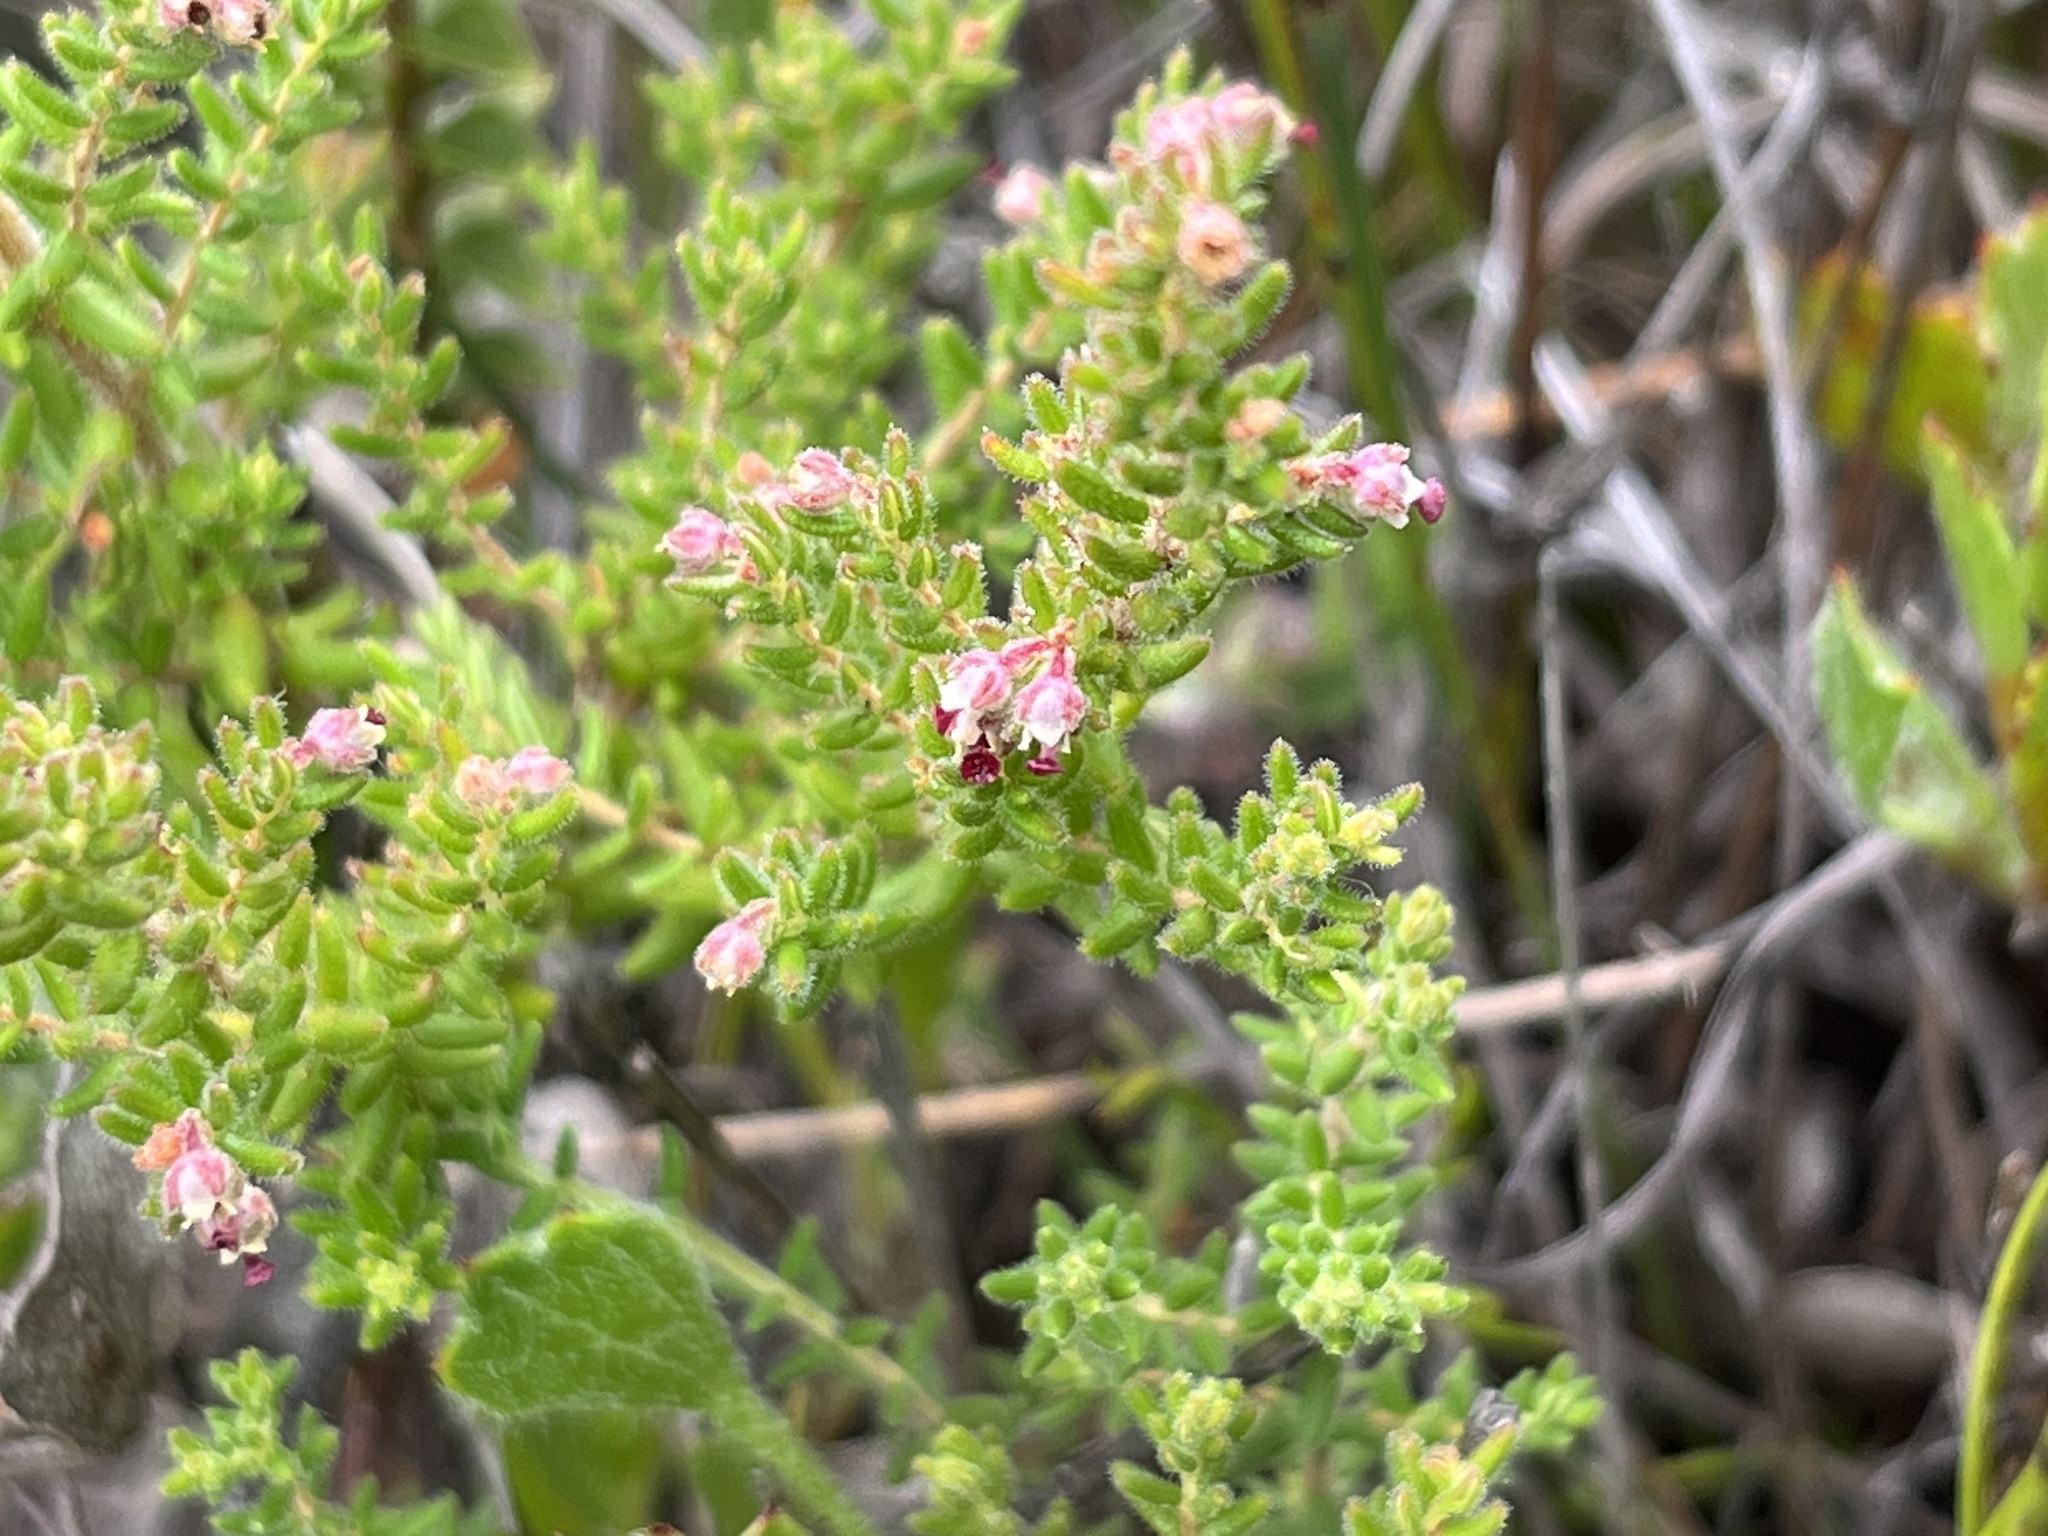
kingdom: Plantae
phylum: Tracheophyta
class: Magnoliopsida
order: Ericales
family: Ericaceae
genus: Erica
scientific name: Erica hispidula
